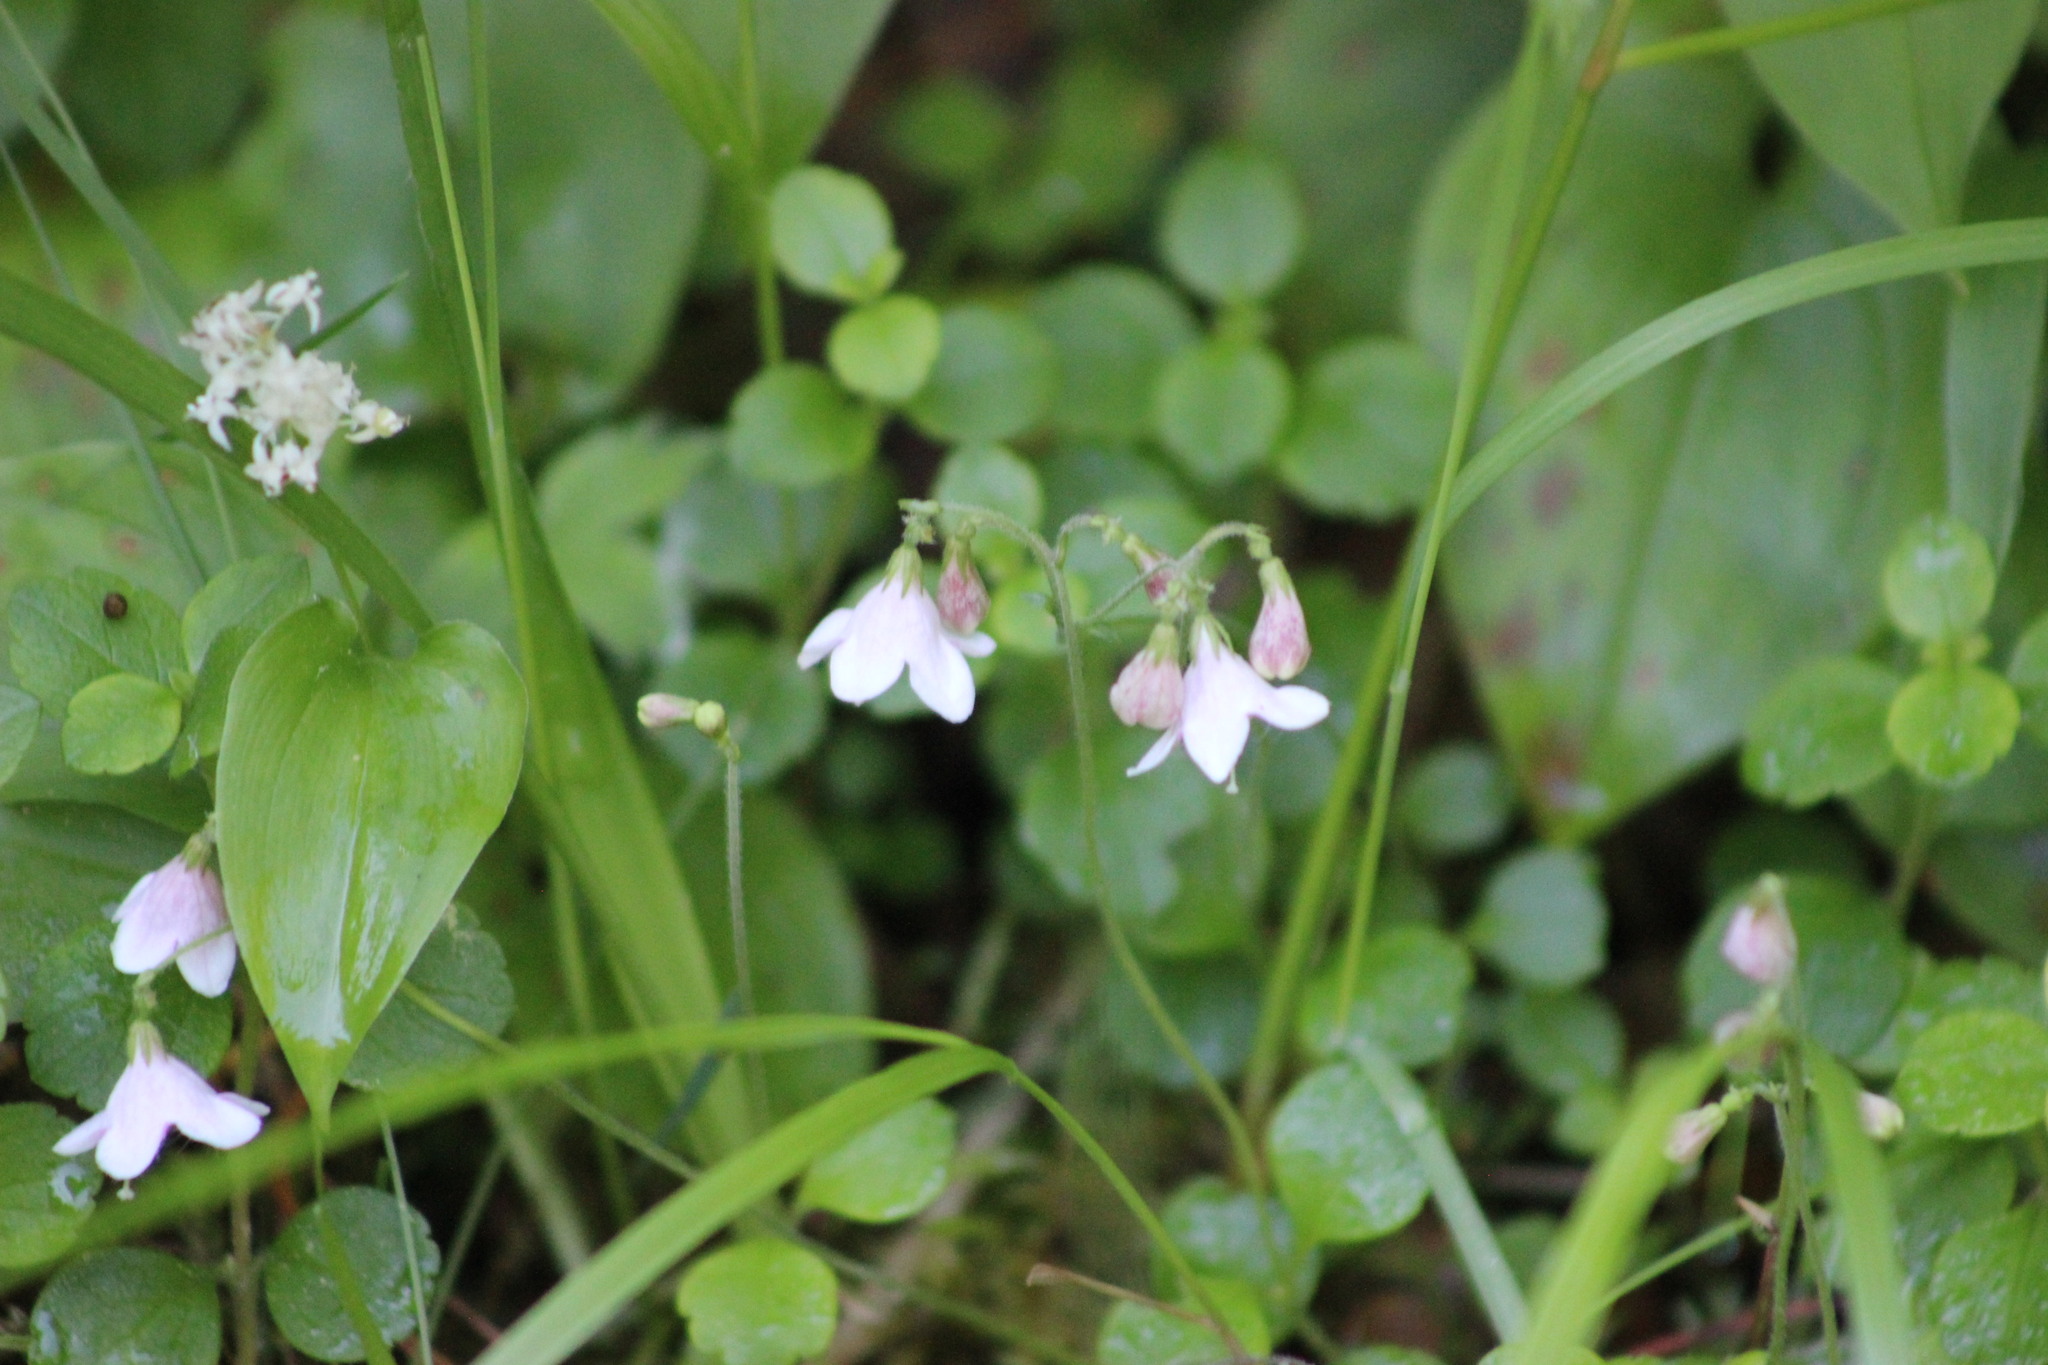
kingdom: Plantae
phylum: Tracheophyta
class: Magnoliopsida
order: Dipsacales
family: Caprifoliaceae
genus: Linnaea
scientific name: Linnaea borealis
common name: Twinflower
